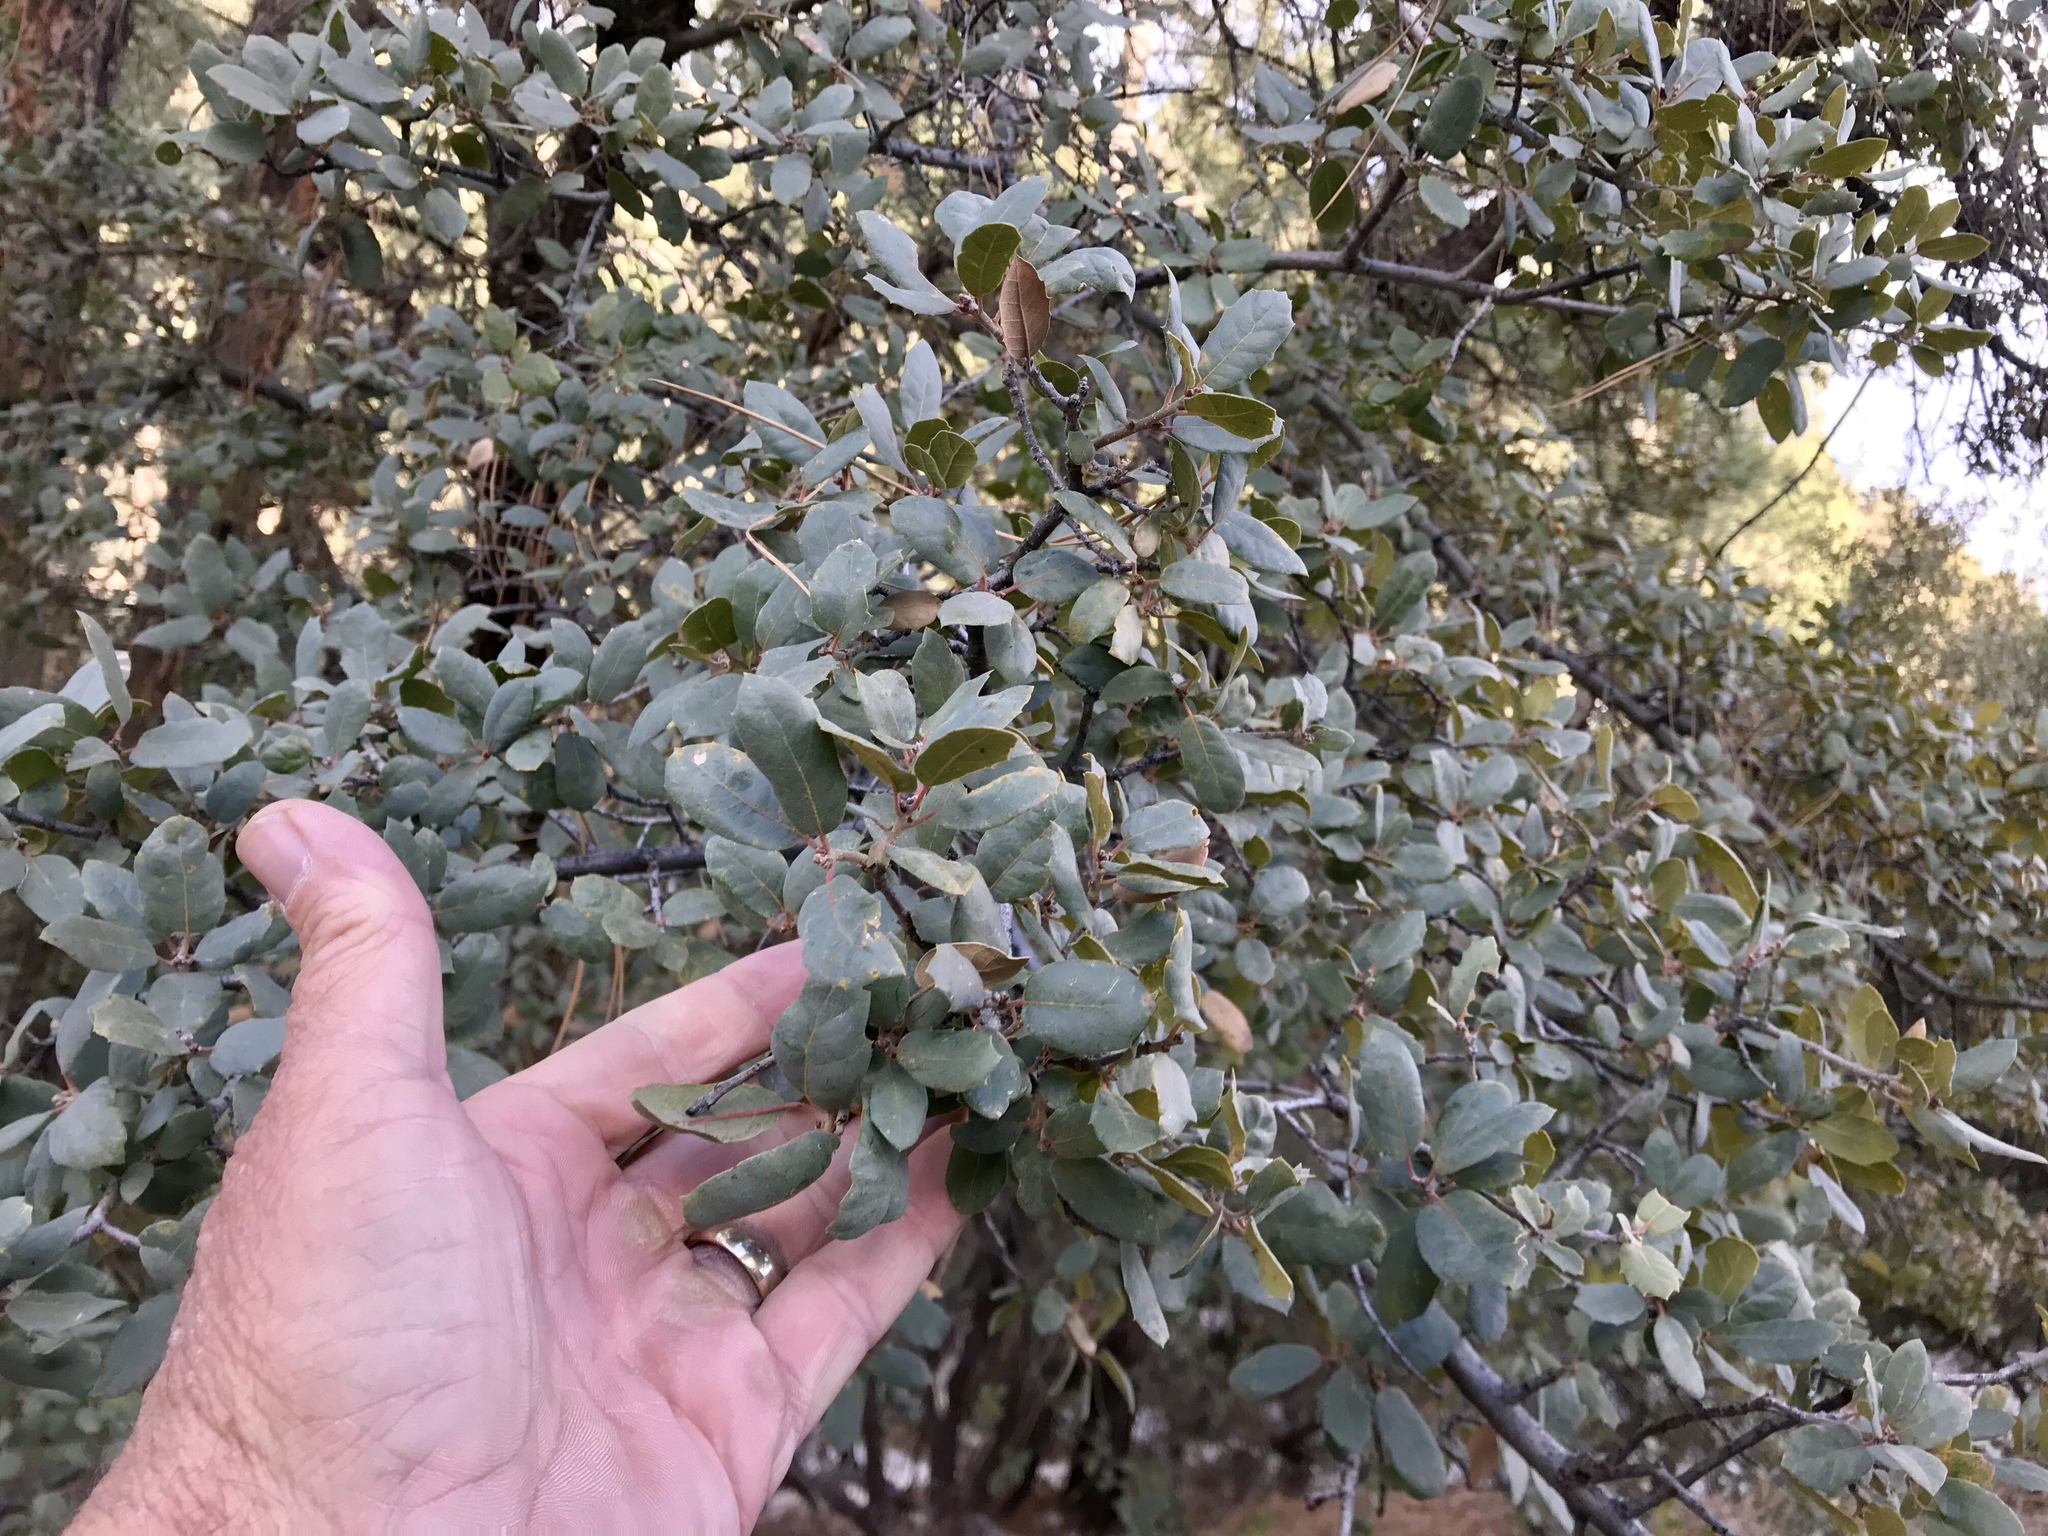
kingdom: Plantae
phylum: Tracheophyta
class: Magnoliopsida
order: Fagales
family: Fagaceae
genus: Quercus
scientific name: Quercus grisea
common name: Gray oak
